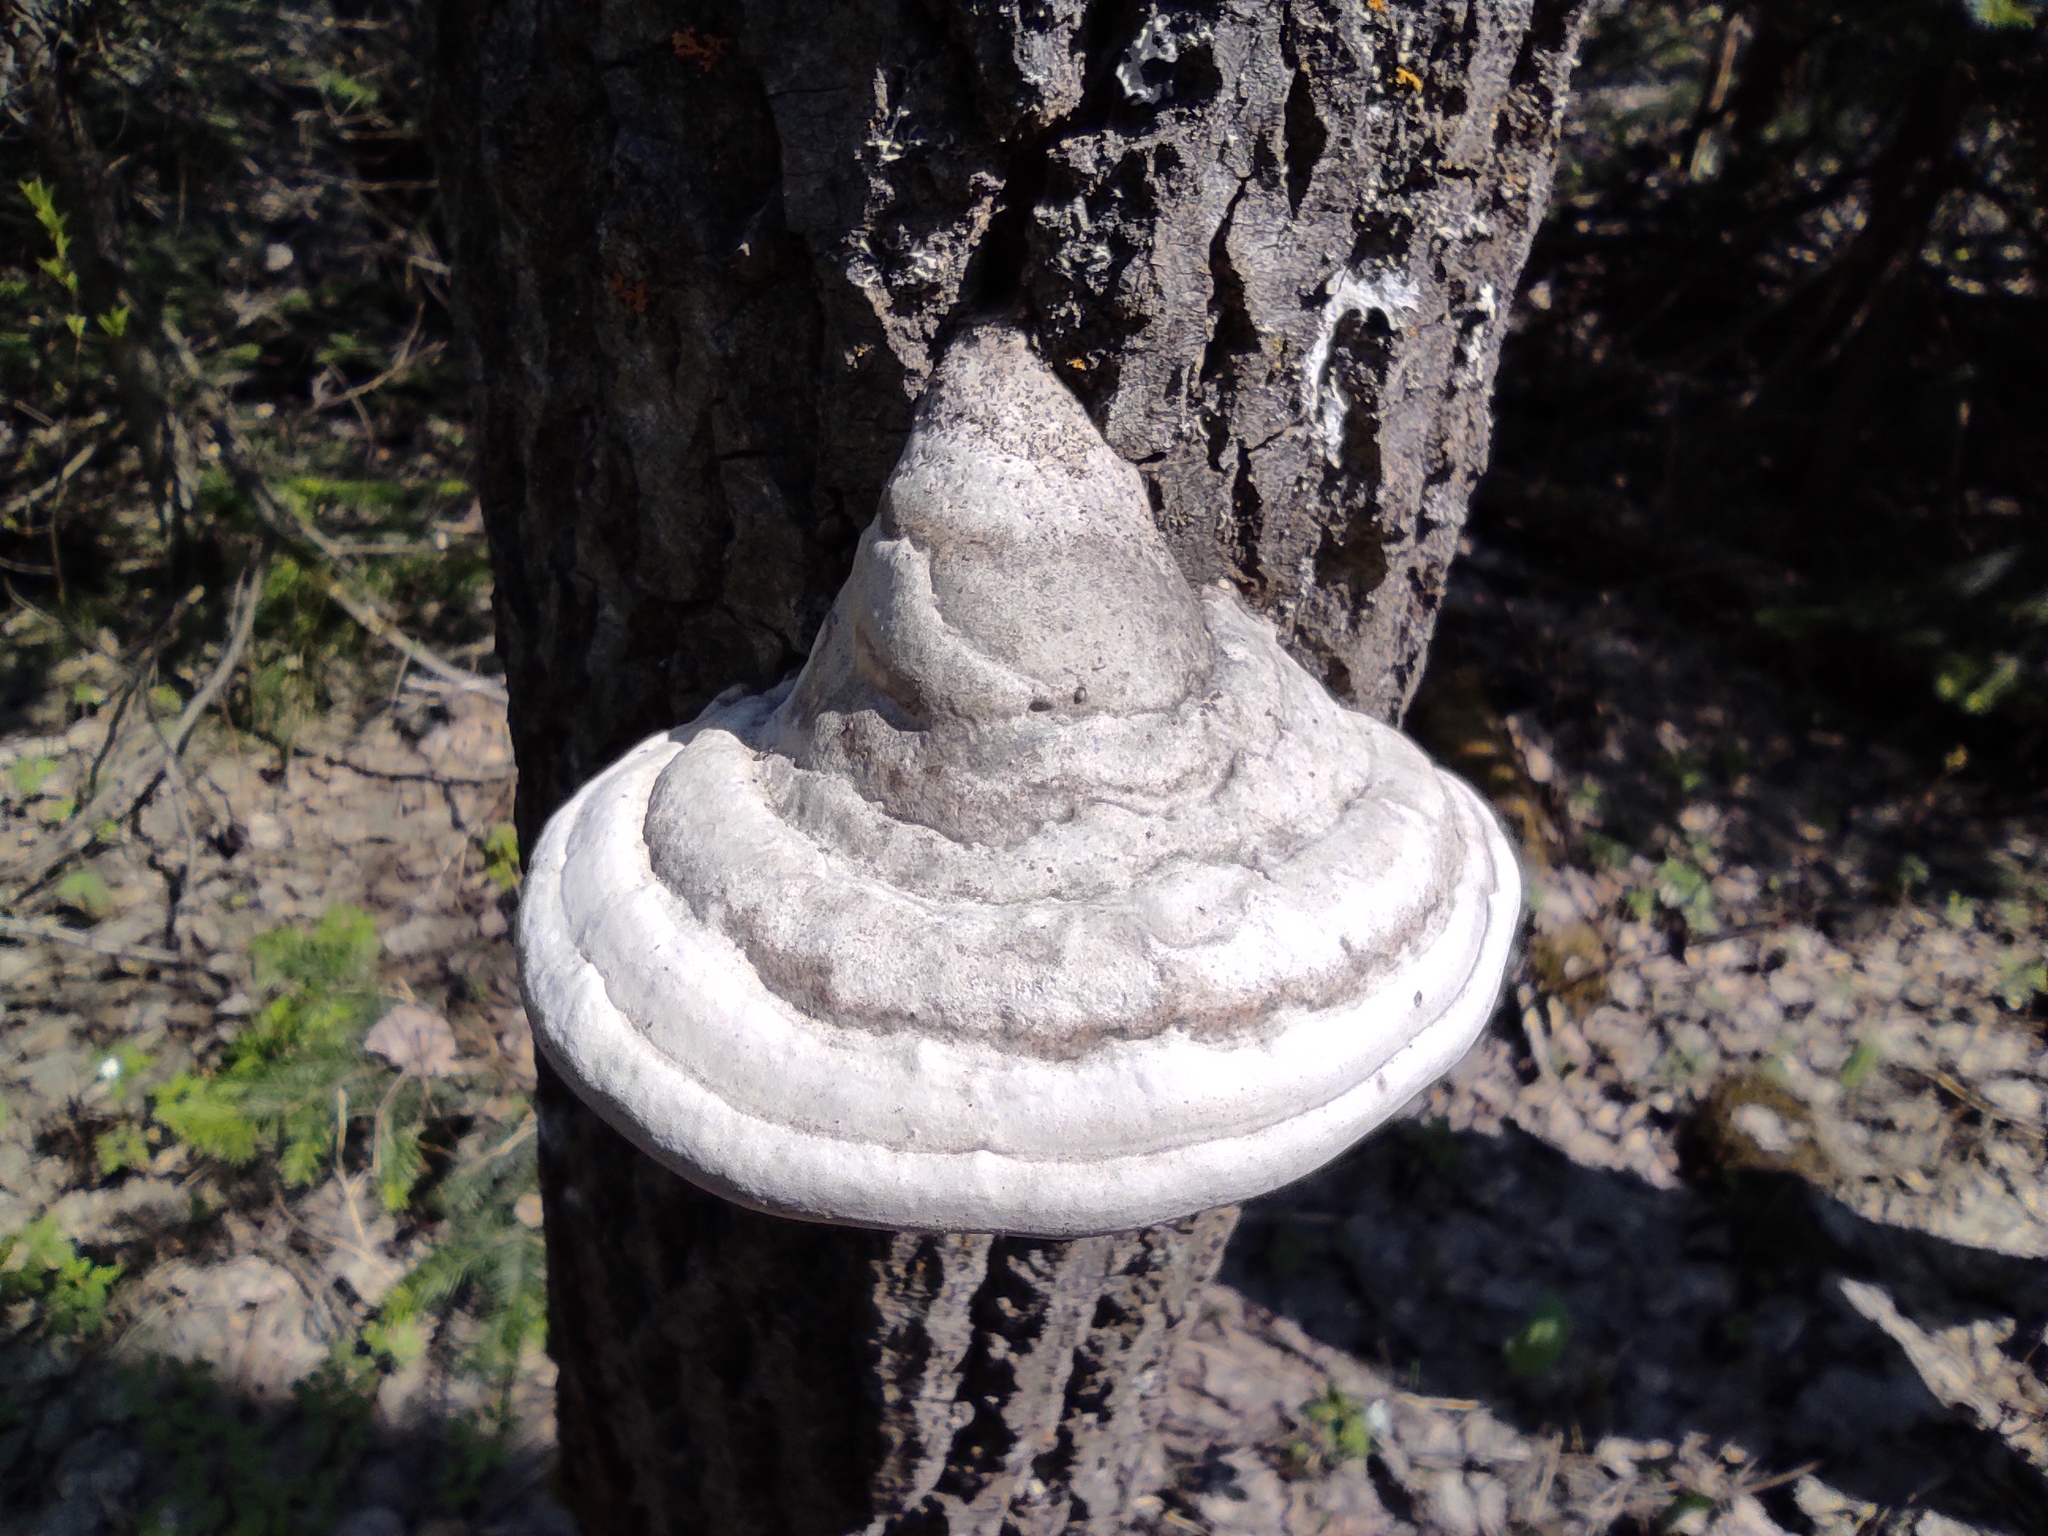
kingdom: Fungi
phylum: Basidiomycota
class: Agaricomycetes
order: Polyporales
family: Polyporaceae
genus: Fomes
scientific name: Fomes fomentarius
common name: Hoof fungus
